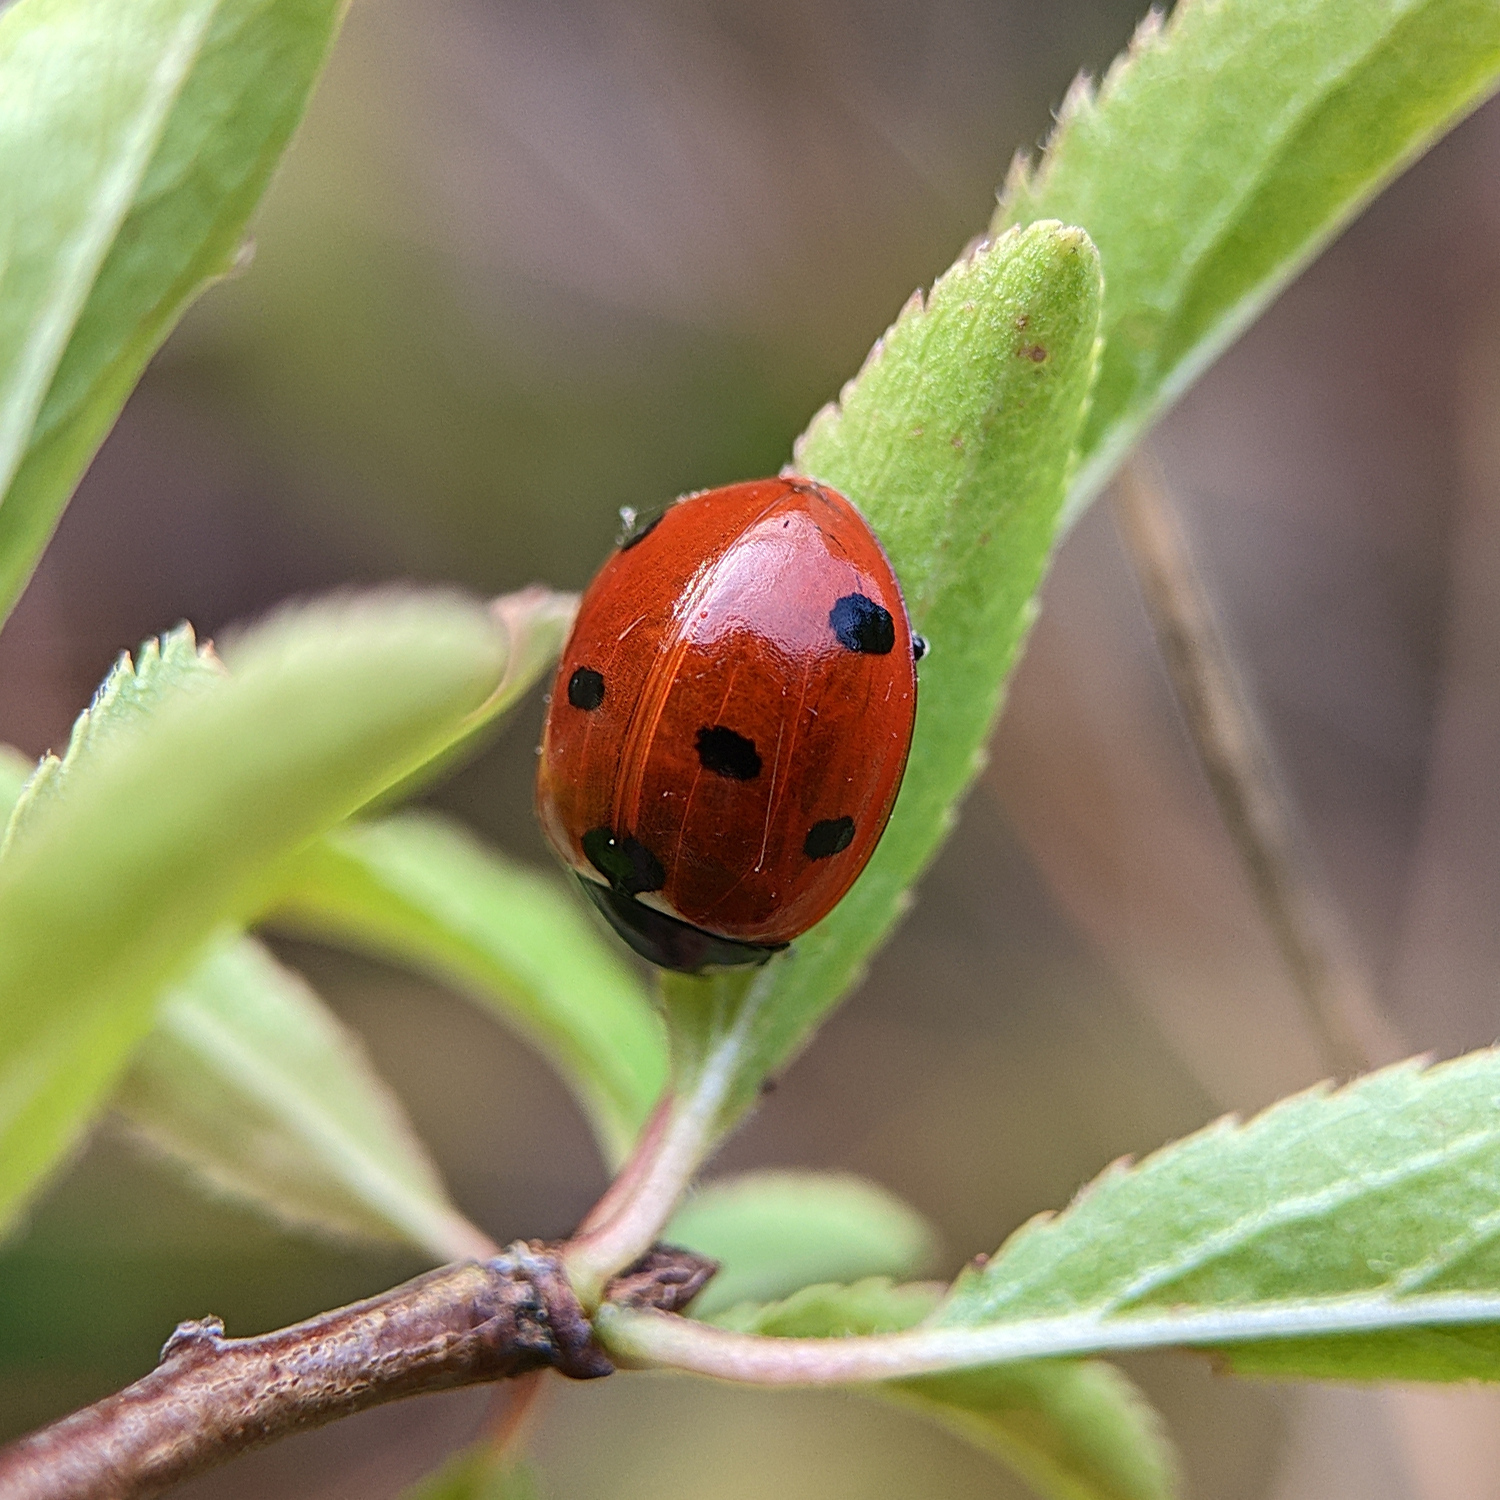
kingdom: Animalia
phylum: Arthropoda
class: Insecta
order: Coleoptera
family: Coccinellidae
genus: Coccinella
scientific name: Coccinella septempunctata
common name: Sevenspotted lady beetle
